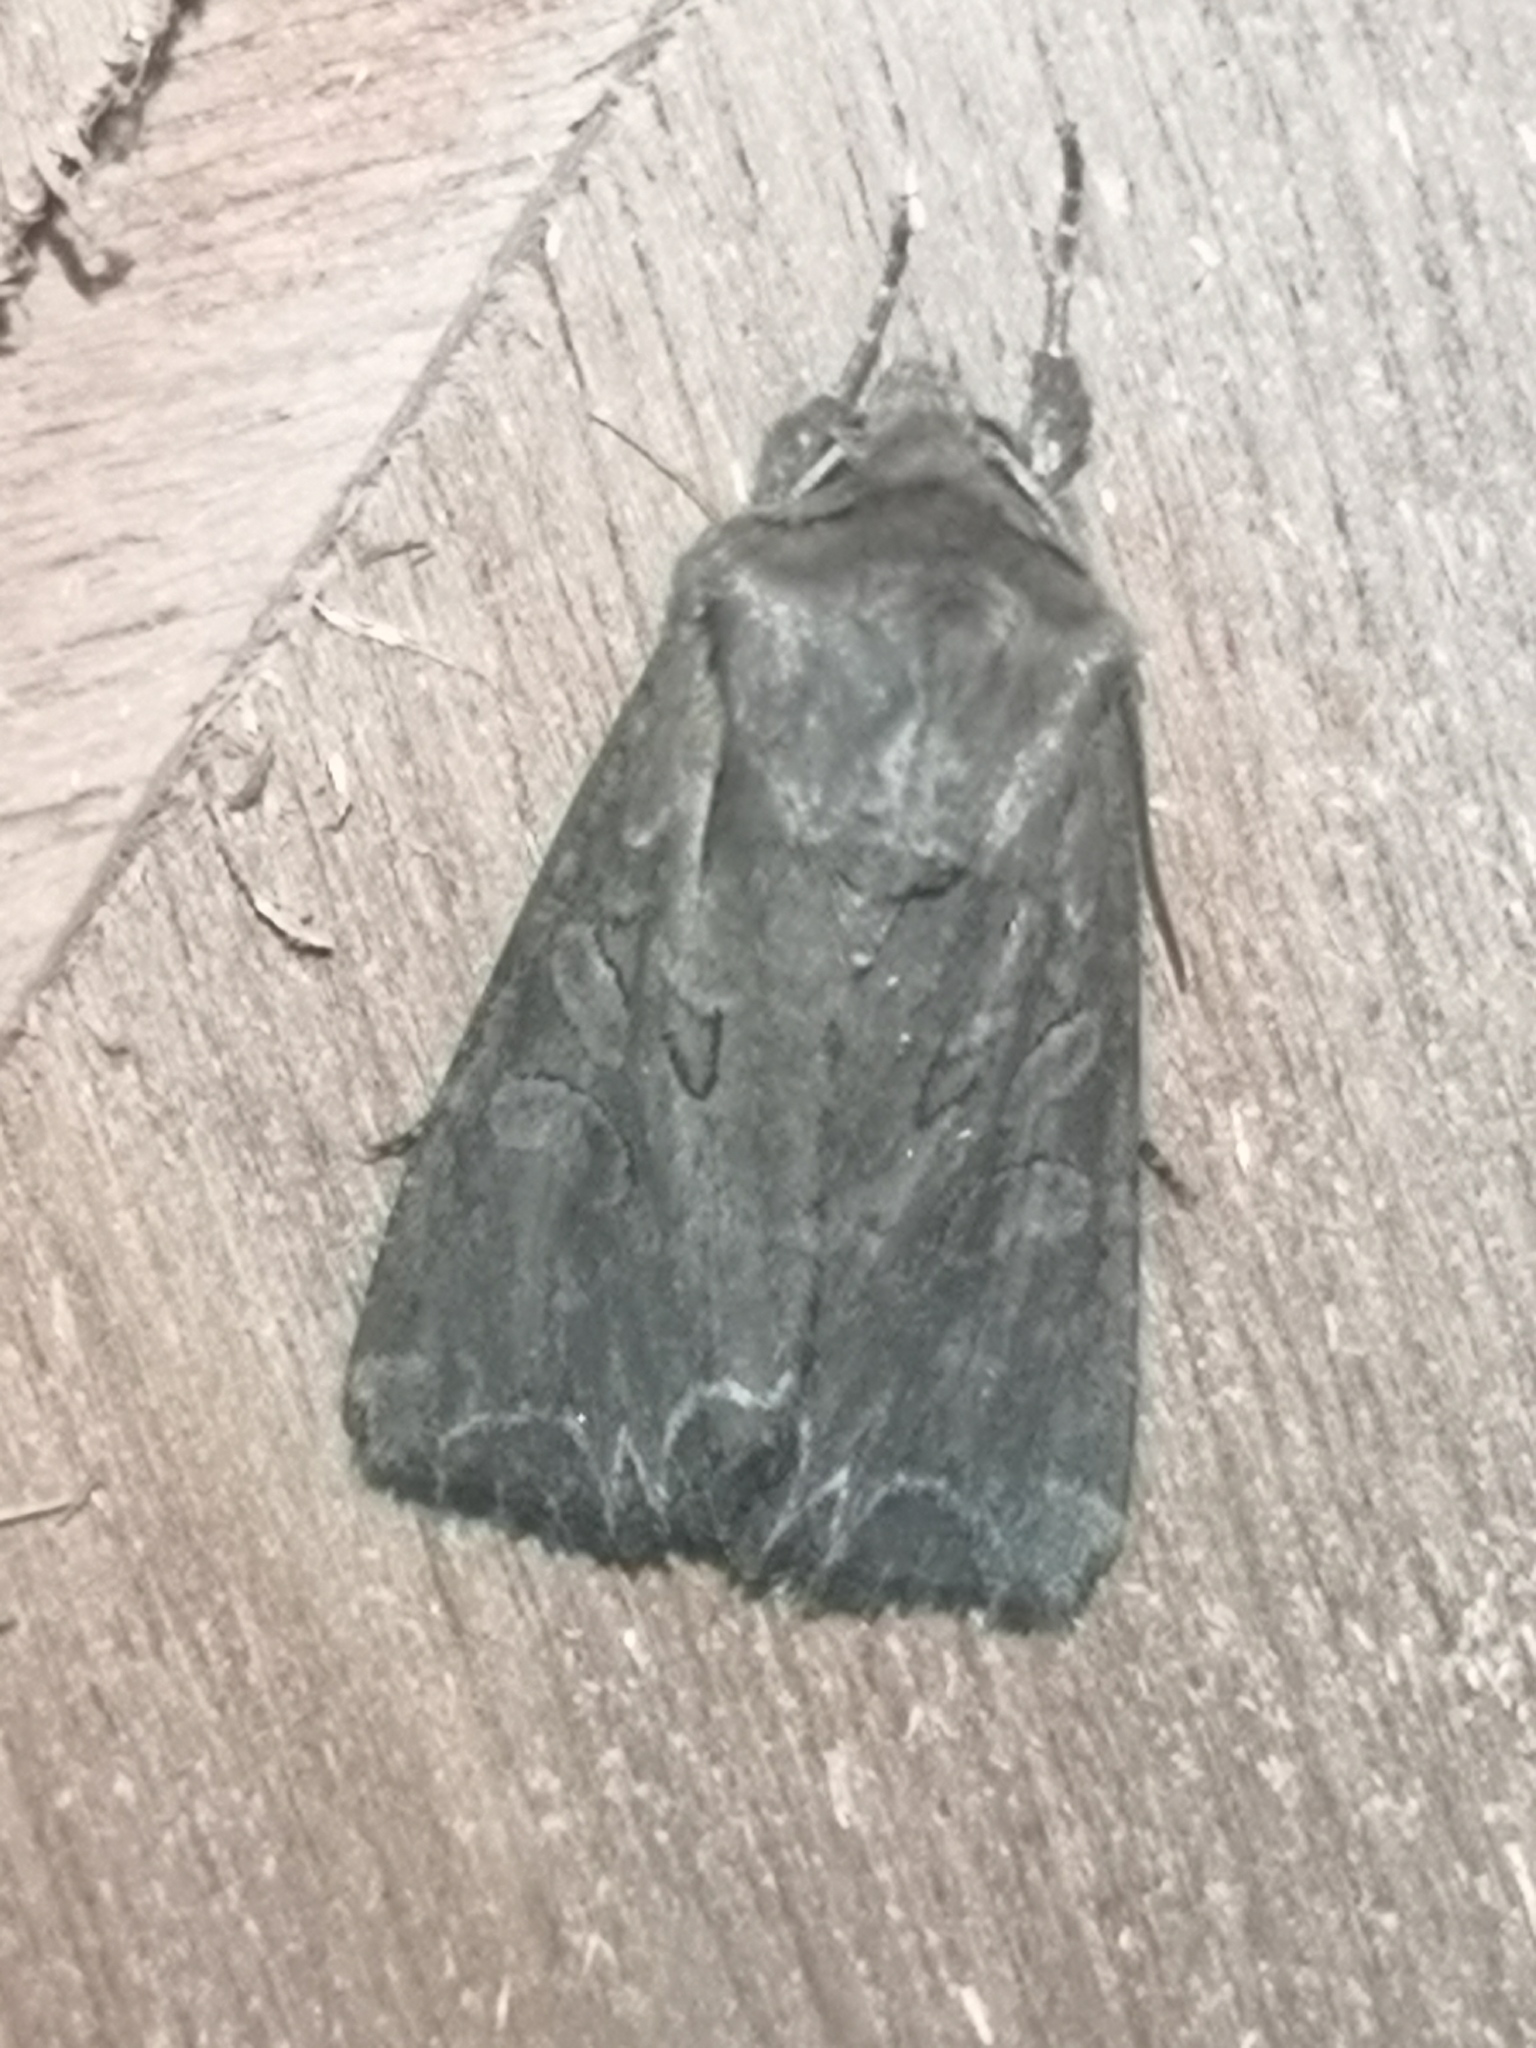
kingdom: Animalia
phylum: Arthropoda
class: Insecta
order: Lepidoptera
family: Noctuidae
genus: Lacanobia
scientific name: Lacanobia suasa
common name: Dog's tooth
